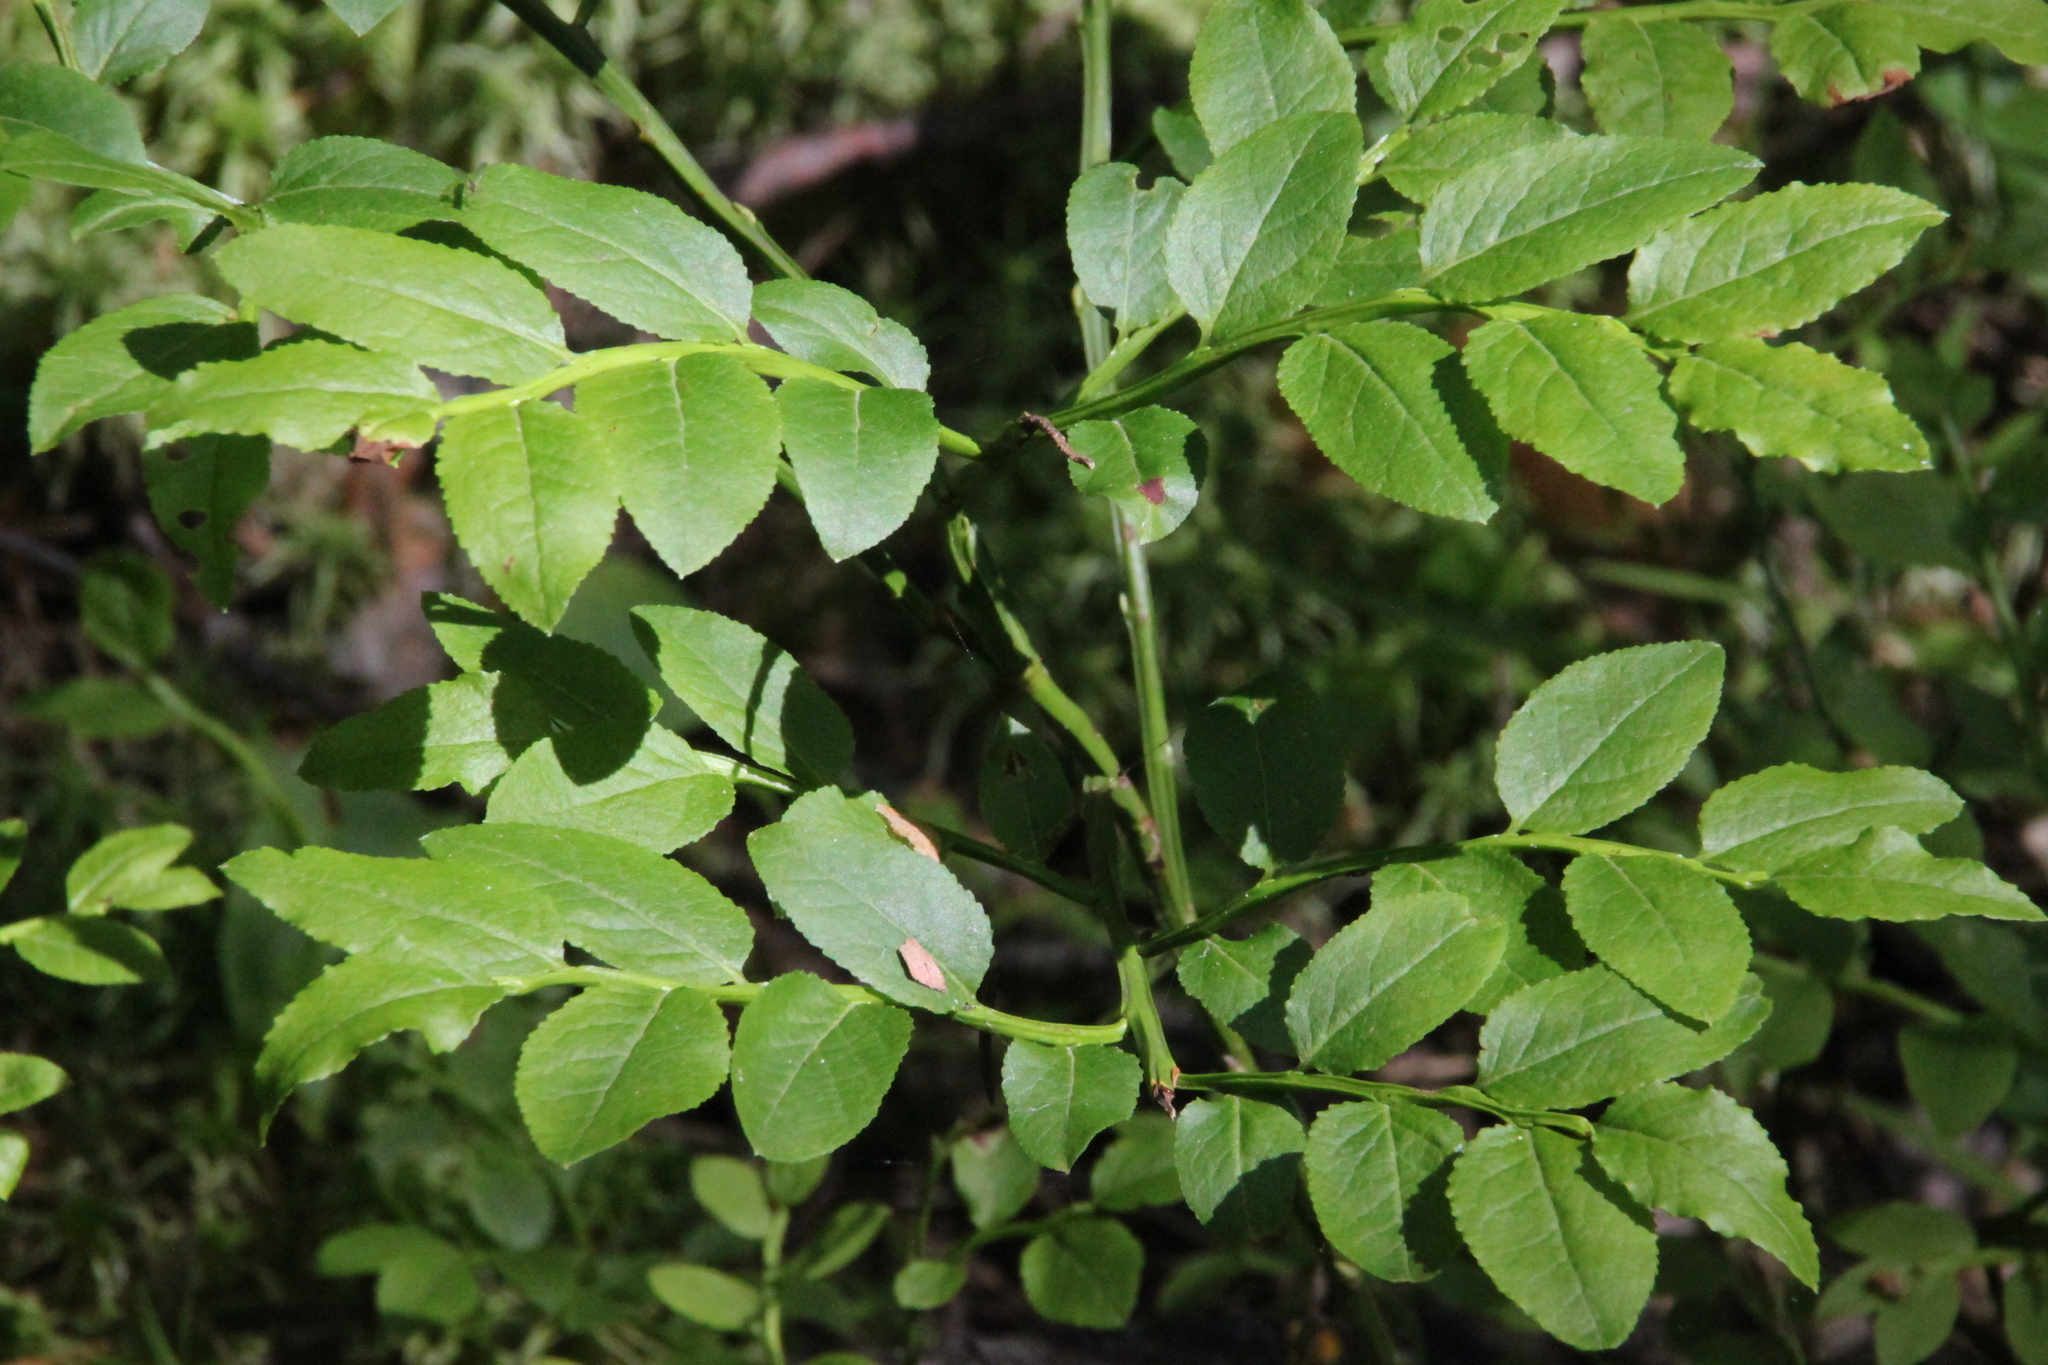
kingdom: Plantae
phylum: Tracheophyta
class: Magnoliopsida
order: Ericales
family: Ericaceae
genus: Vaccinium
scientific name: Vaccinium myrtillus
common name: Bilberry
